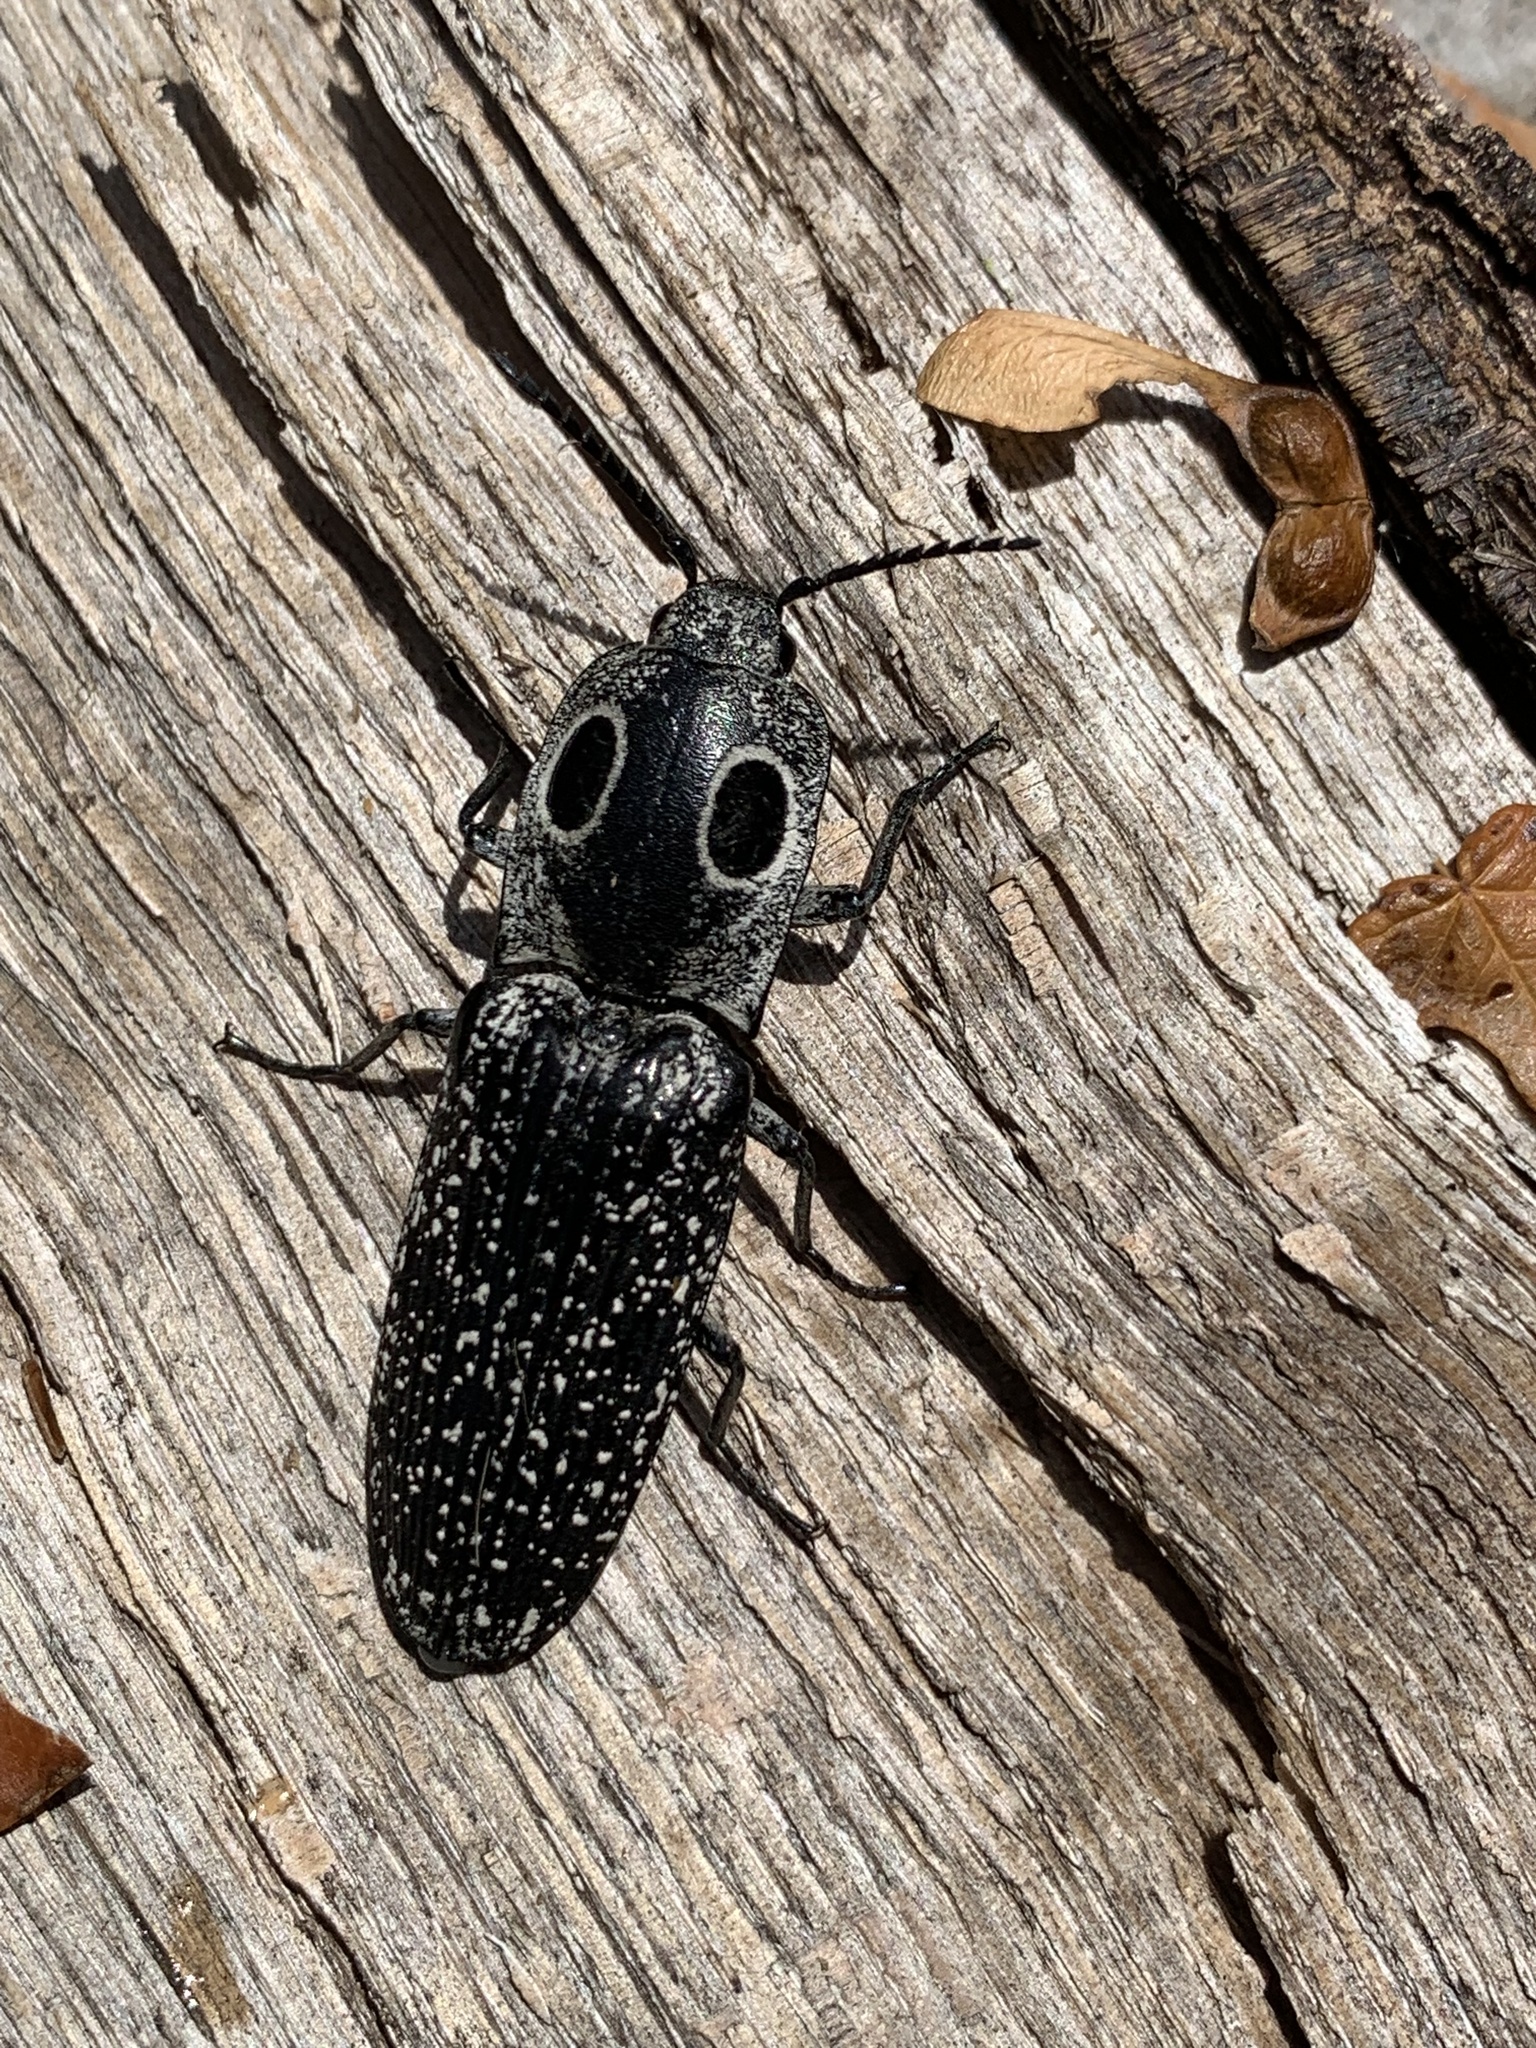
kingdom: Animalia
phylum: Arthropoda
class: Insecta
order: Coleoptera
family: Elateridae
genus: Alaus
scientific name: Alaus oculatus
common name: Eastern eyed click beetle
